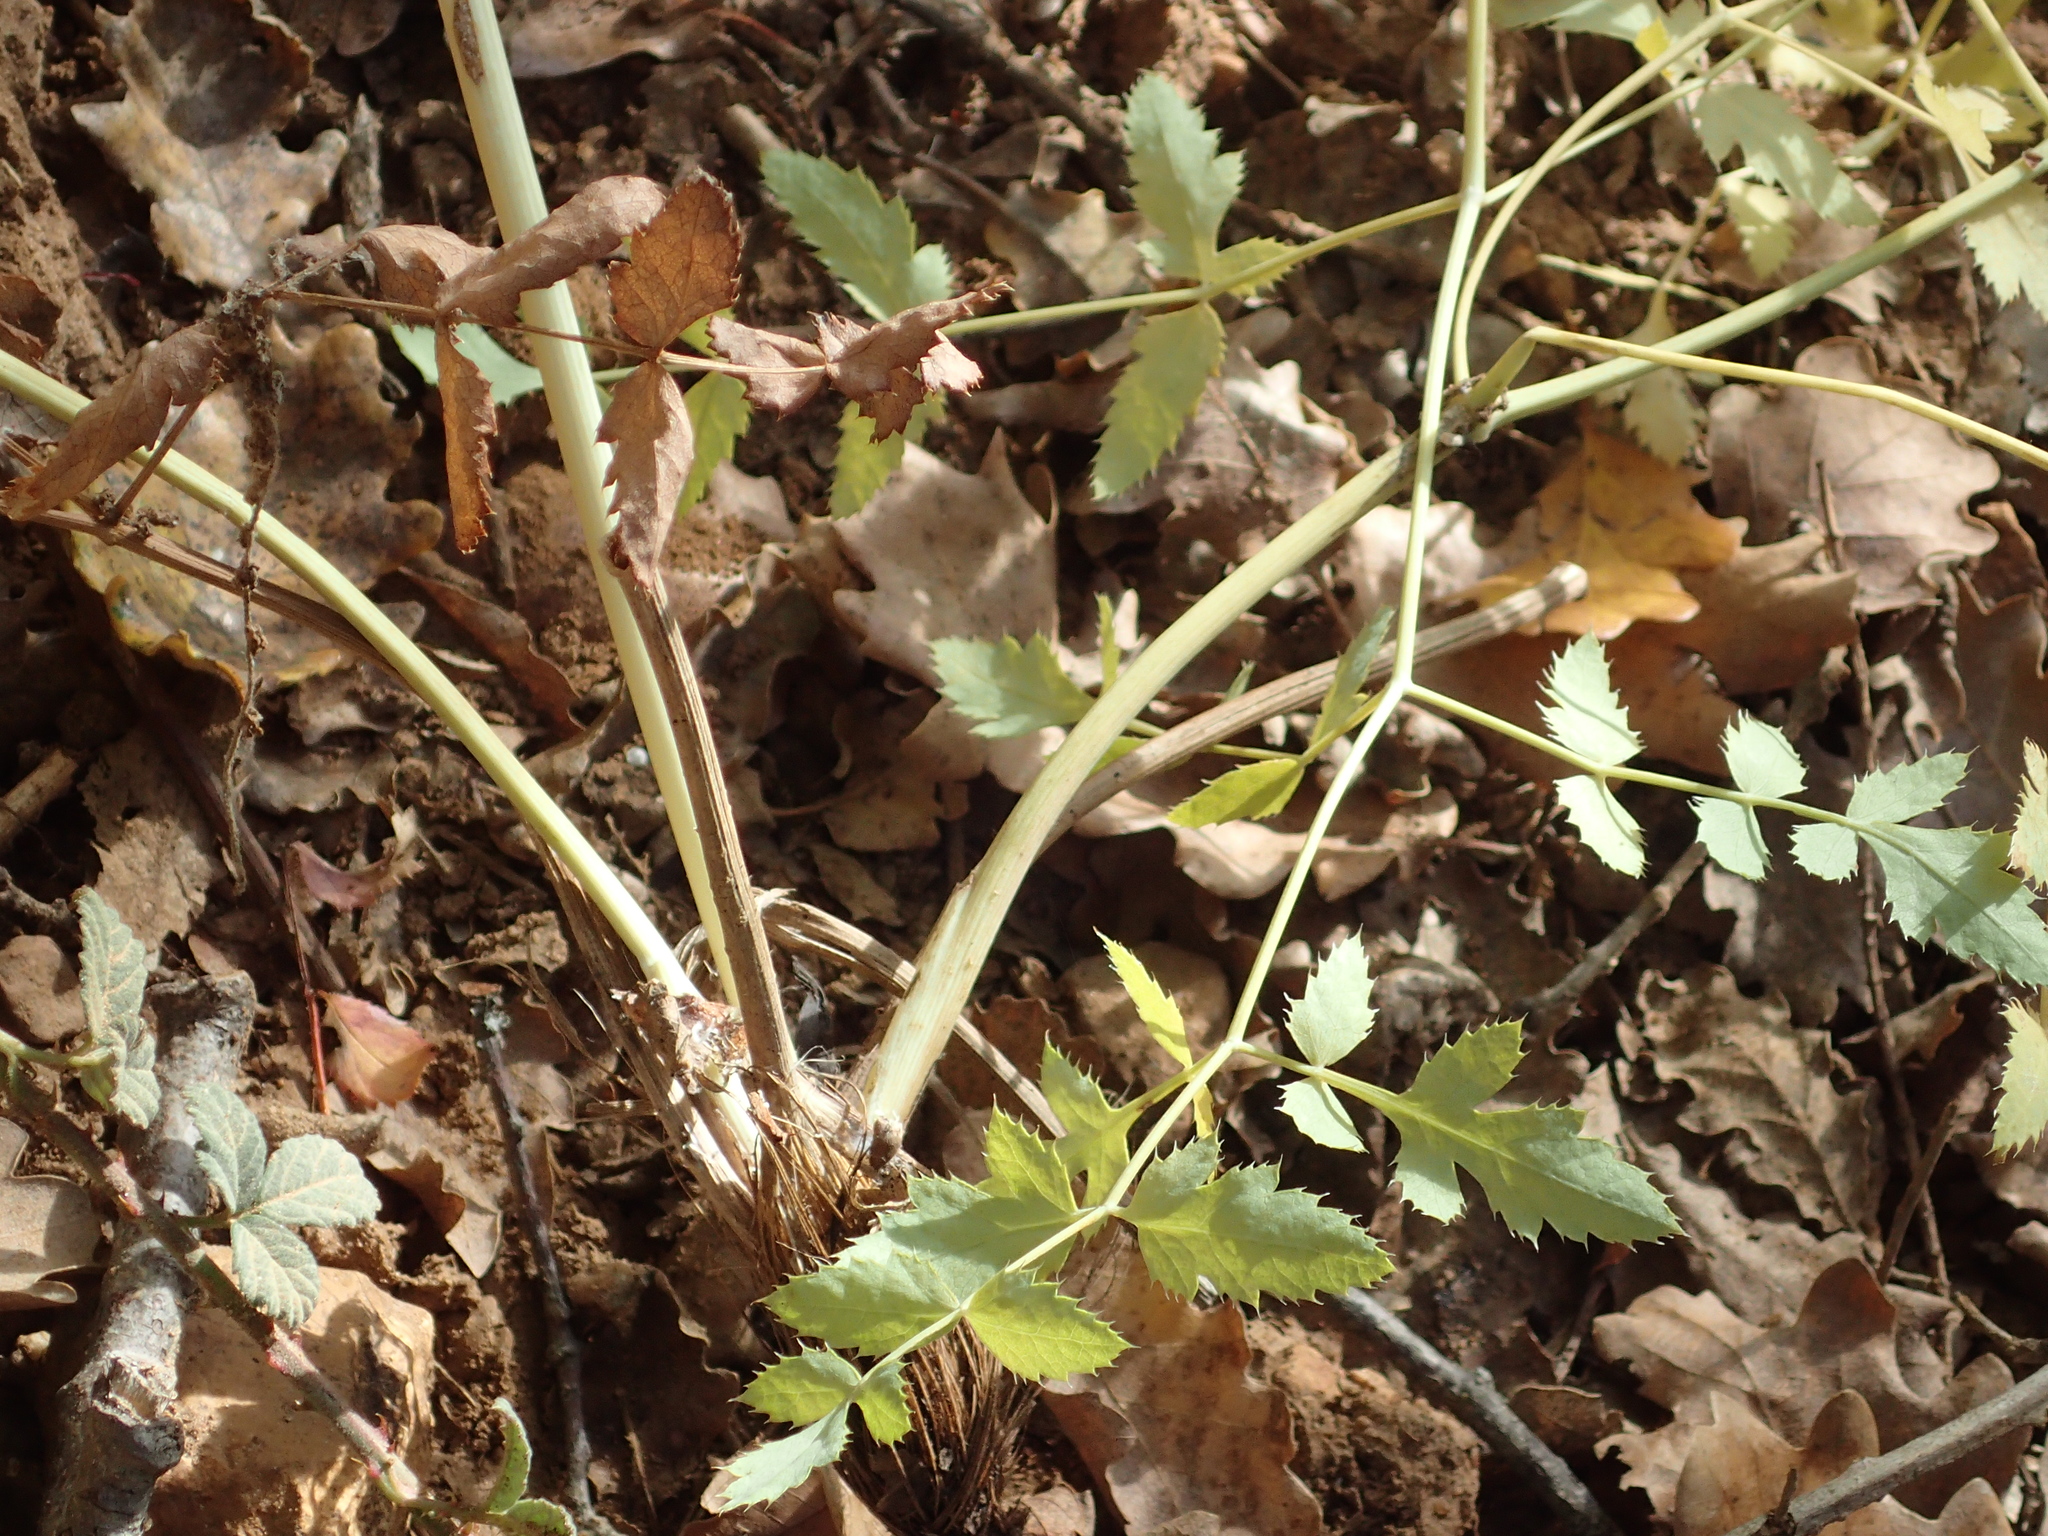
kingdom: Plantae
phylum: Tracheophyta
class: Magnoliopsida
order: Apiales
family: Apiaceae
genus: Cervaria
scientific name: Cervaria rivini
